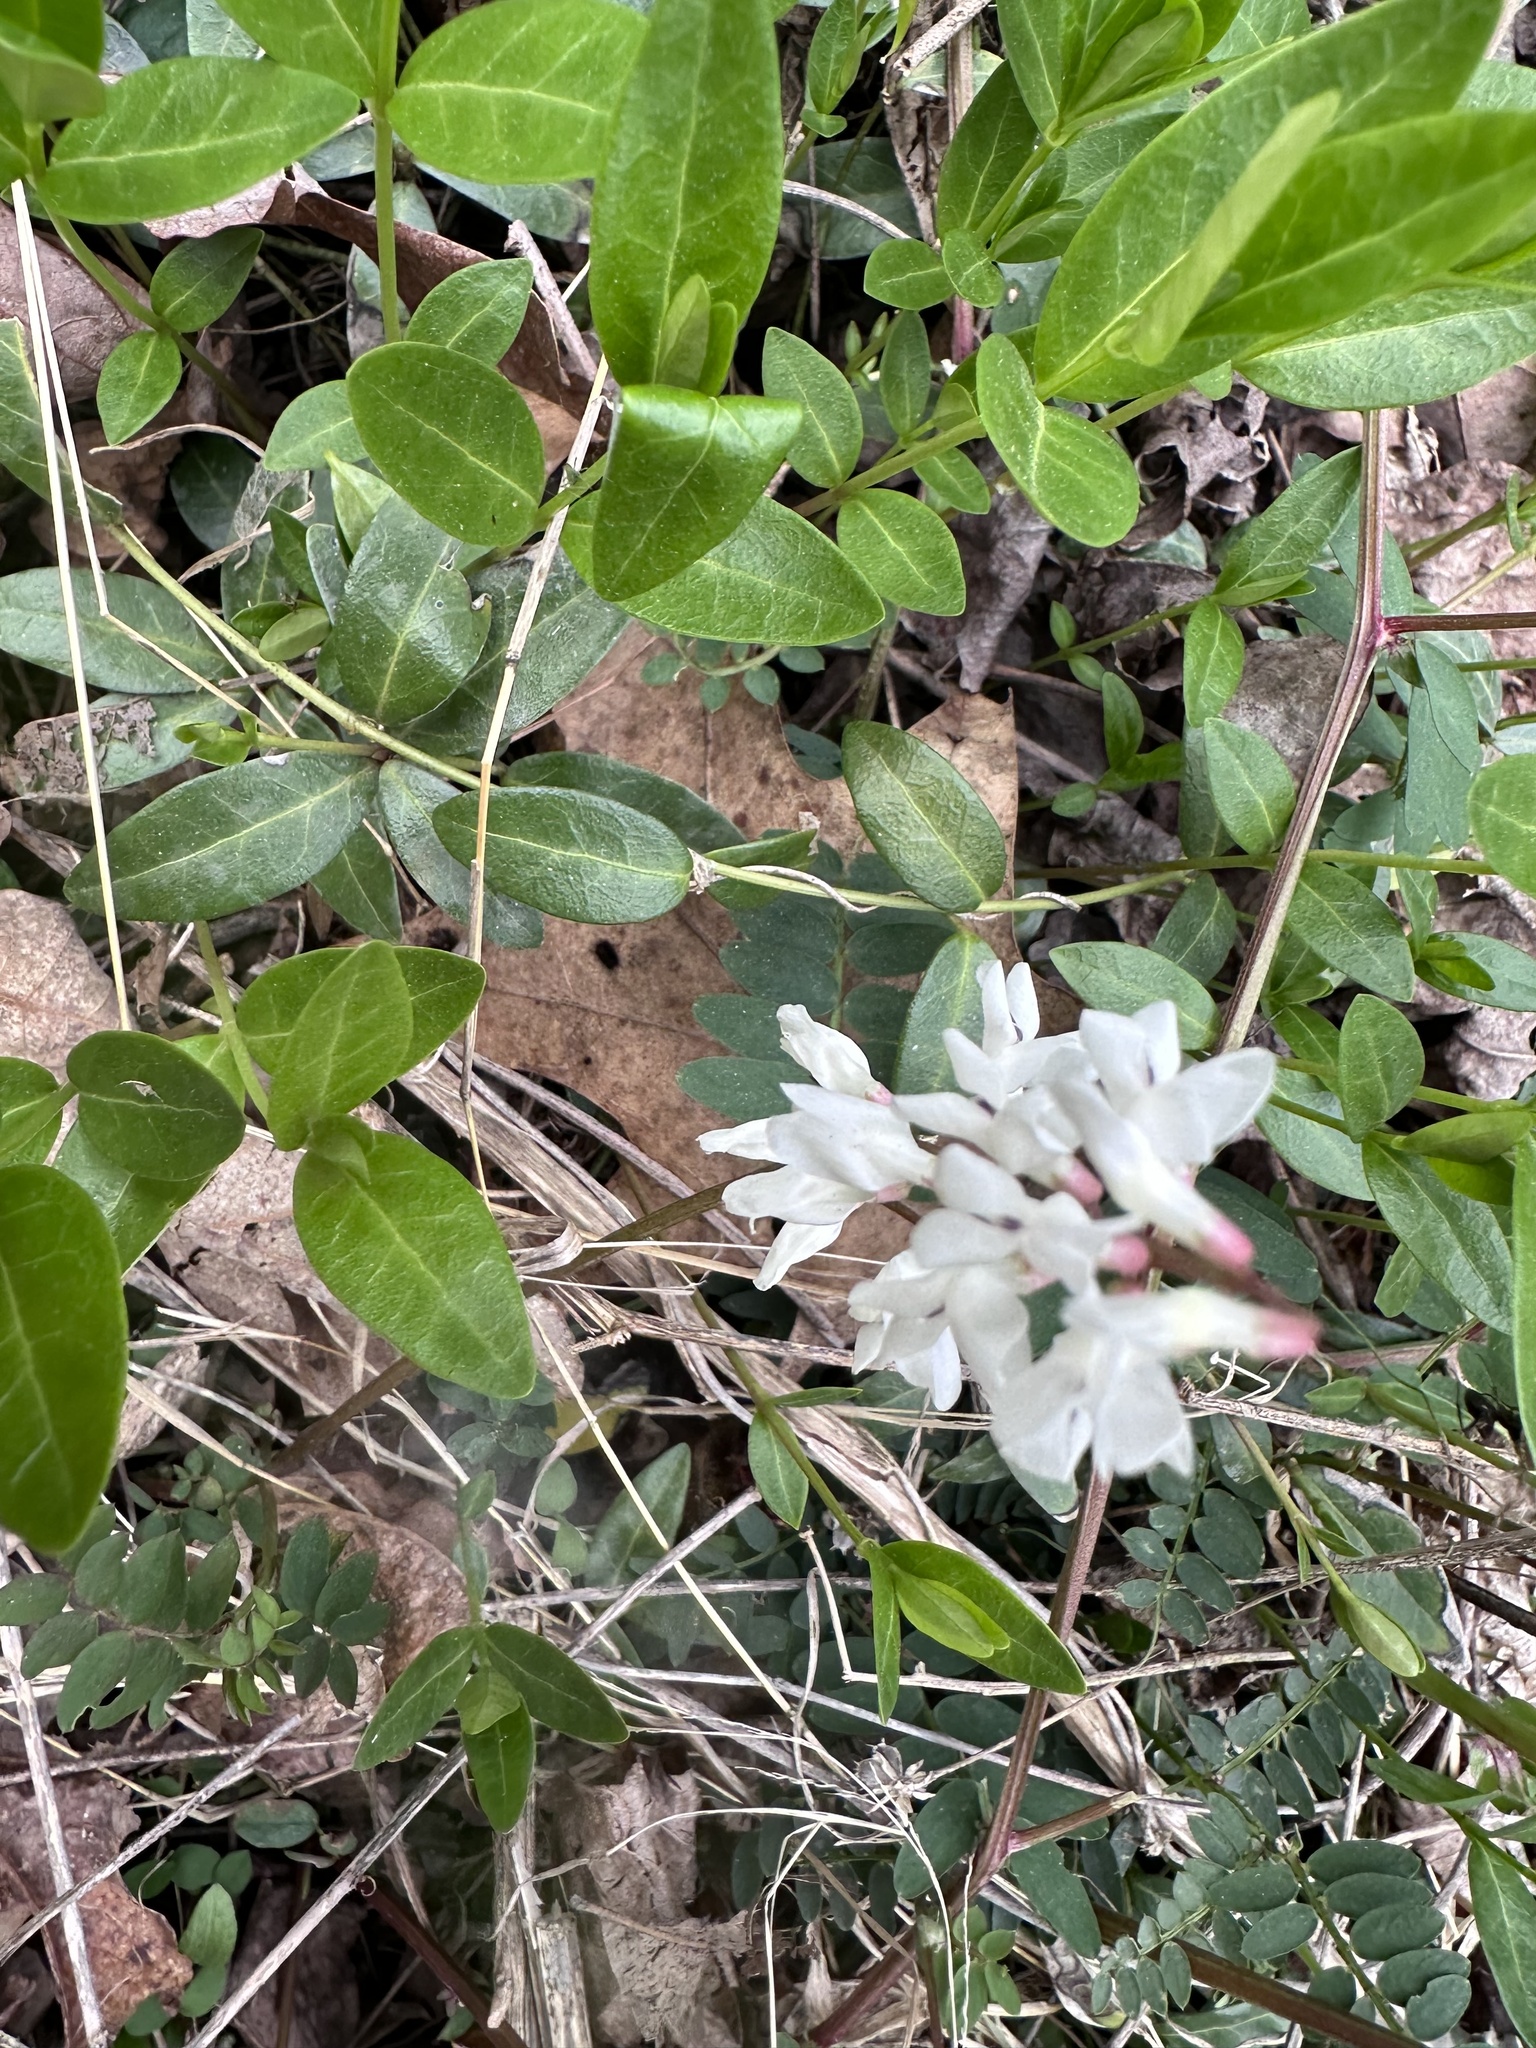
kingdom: Plantae
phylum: Tracheophyta
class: Magnoliopsida
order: Fabales
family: Fabaceae
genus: Vicia
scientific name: Vicia caroliniana
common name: Carolina vetch
